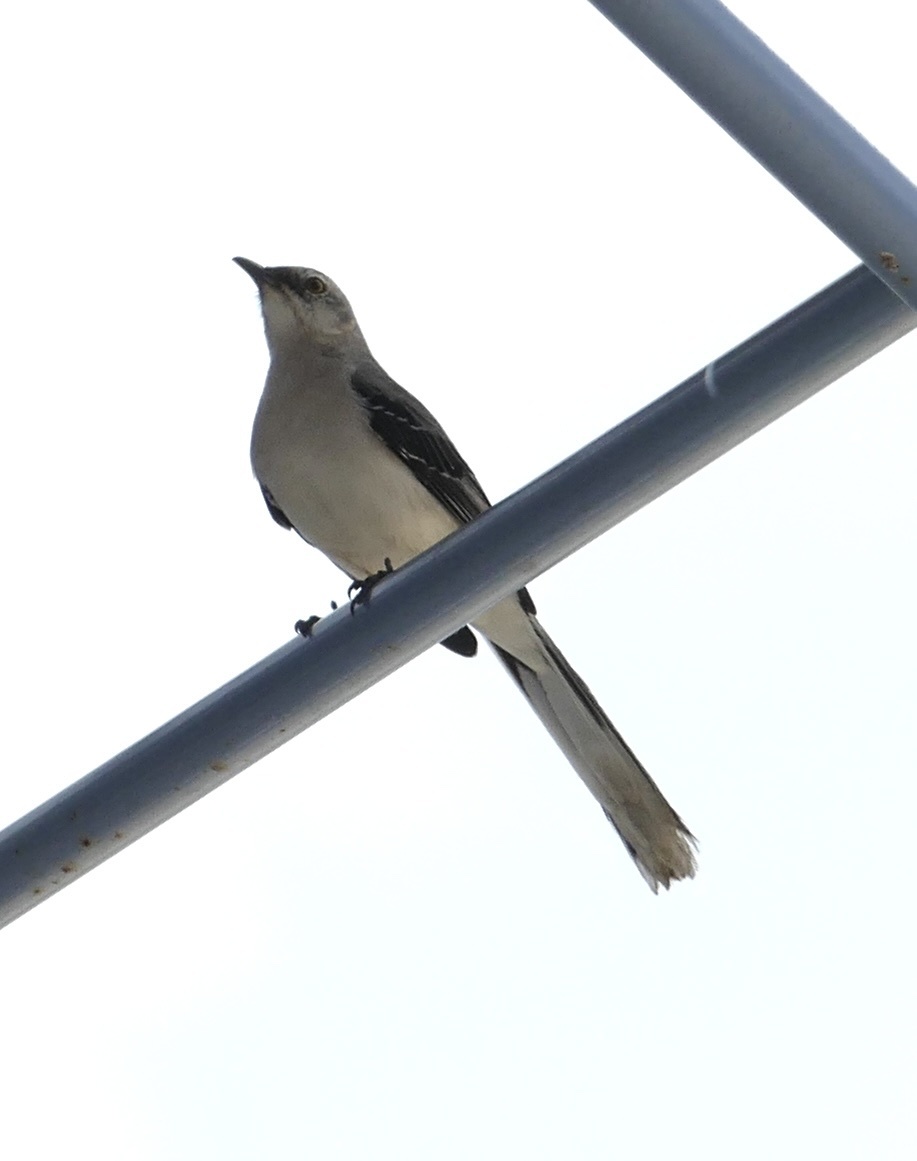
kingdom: Animalia
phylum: Chordata
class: Aves
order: Passeriformes
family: Mimidae
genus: Mimus
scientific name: Mimus gilvus
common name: Tropical mockingbird
